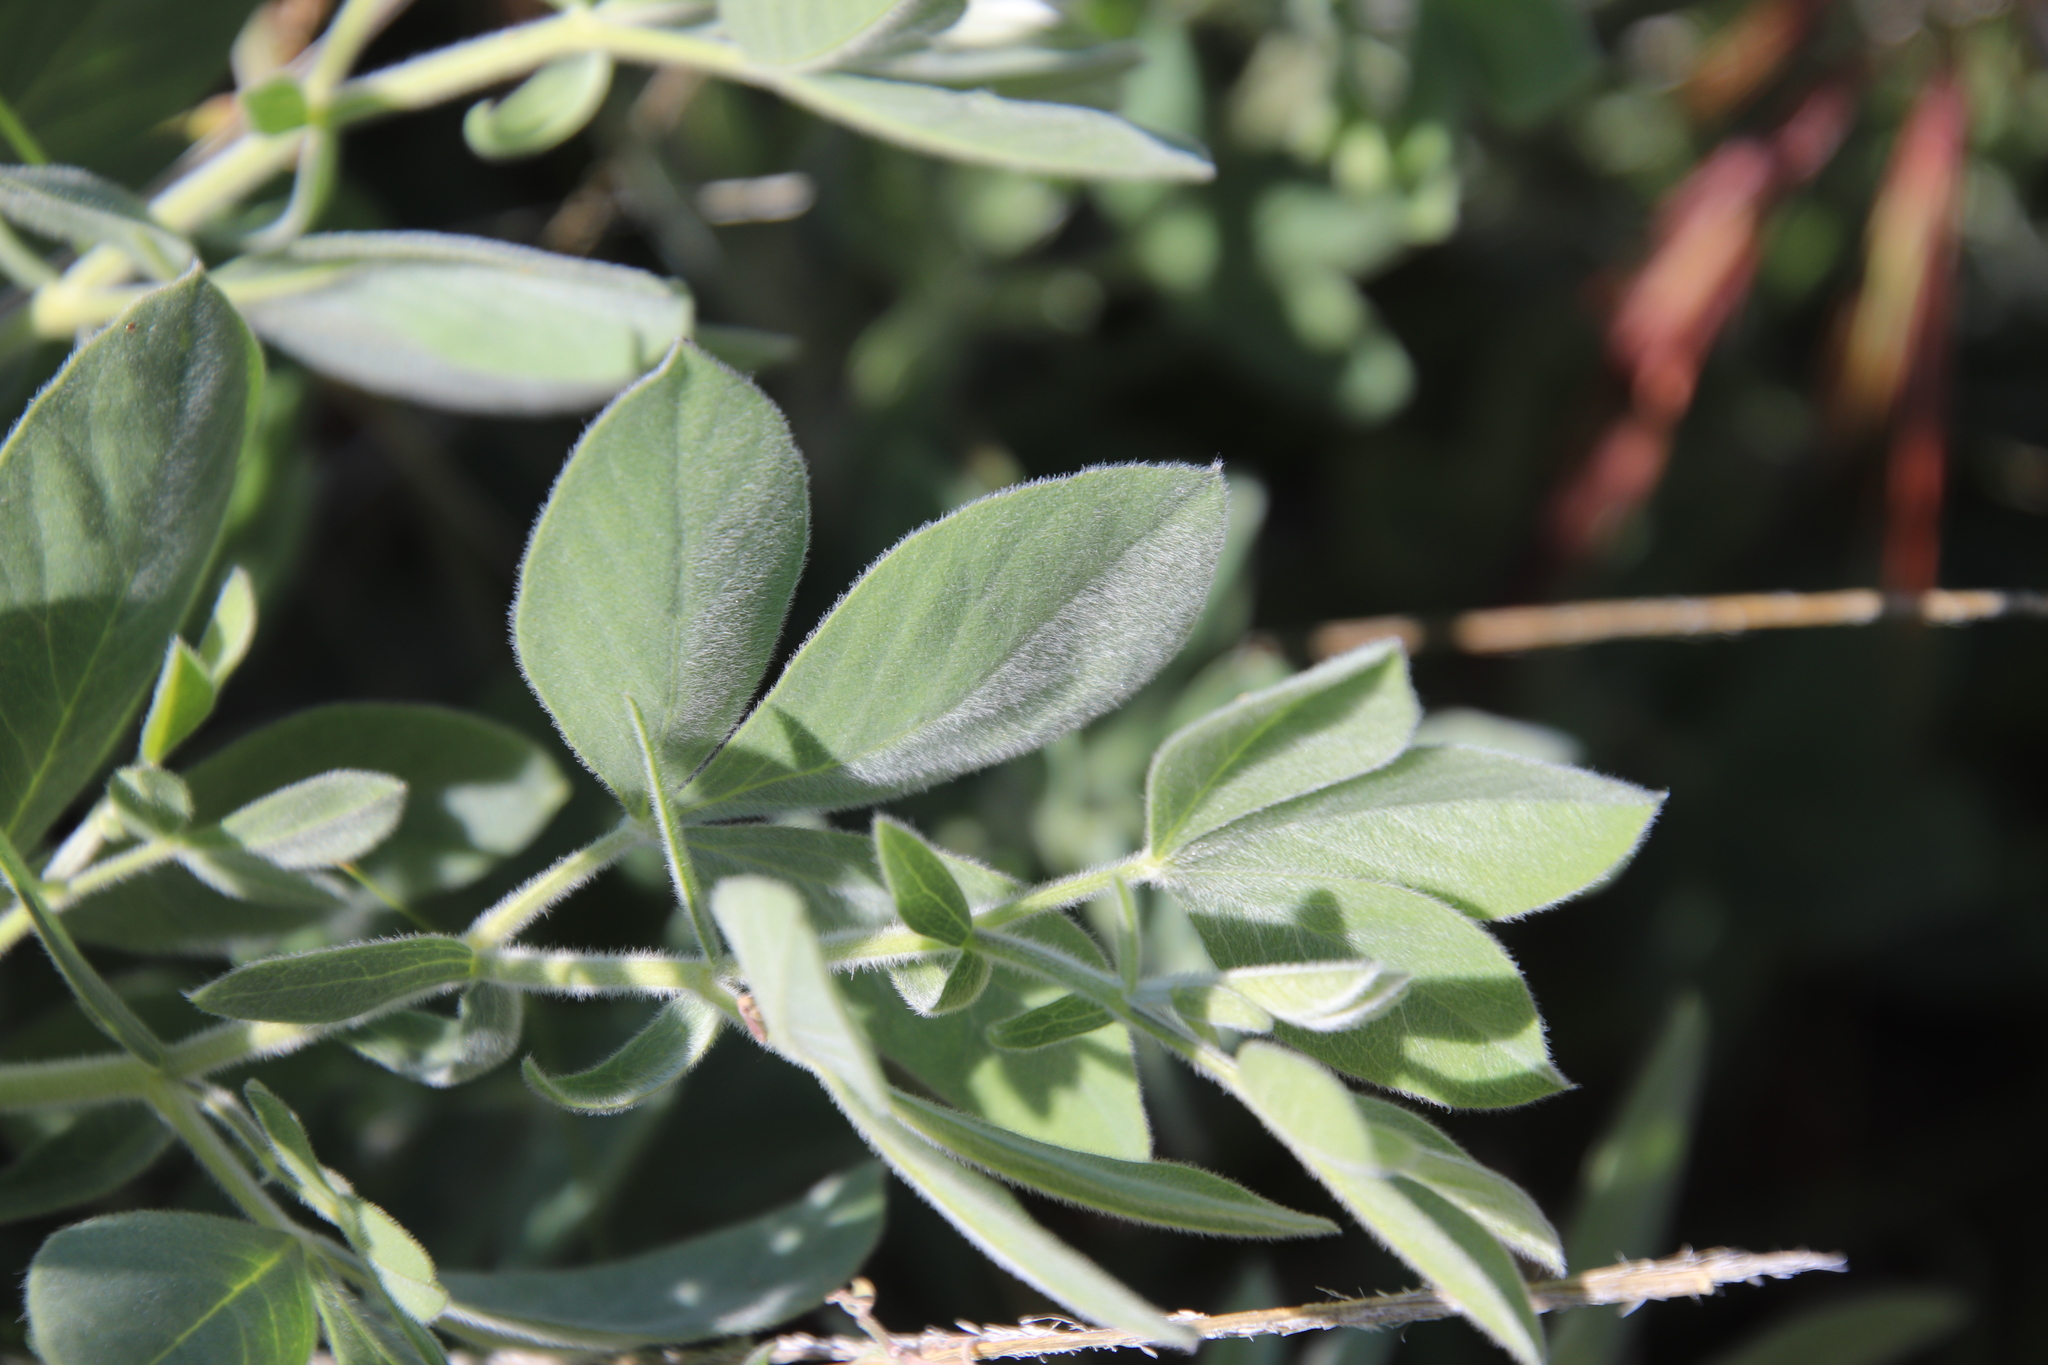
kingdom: Plantae
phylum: Tracheophyta
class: Magnoliopsida
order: Fabales
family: Fabaceae
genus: Thermopsis
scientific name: Thermopsis californica
